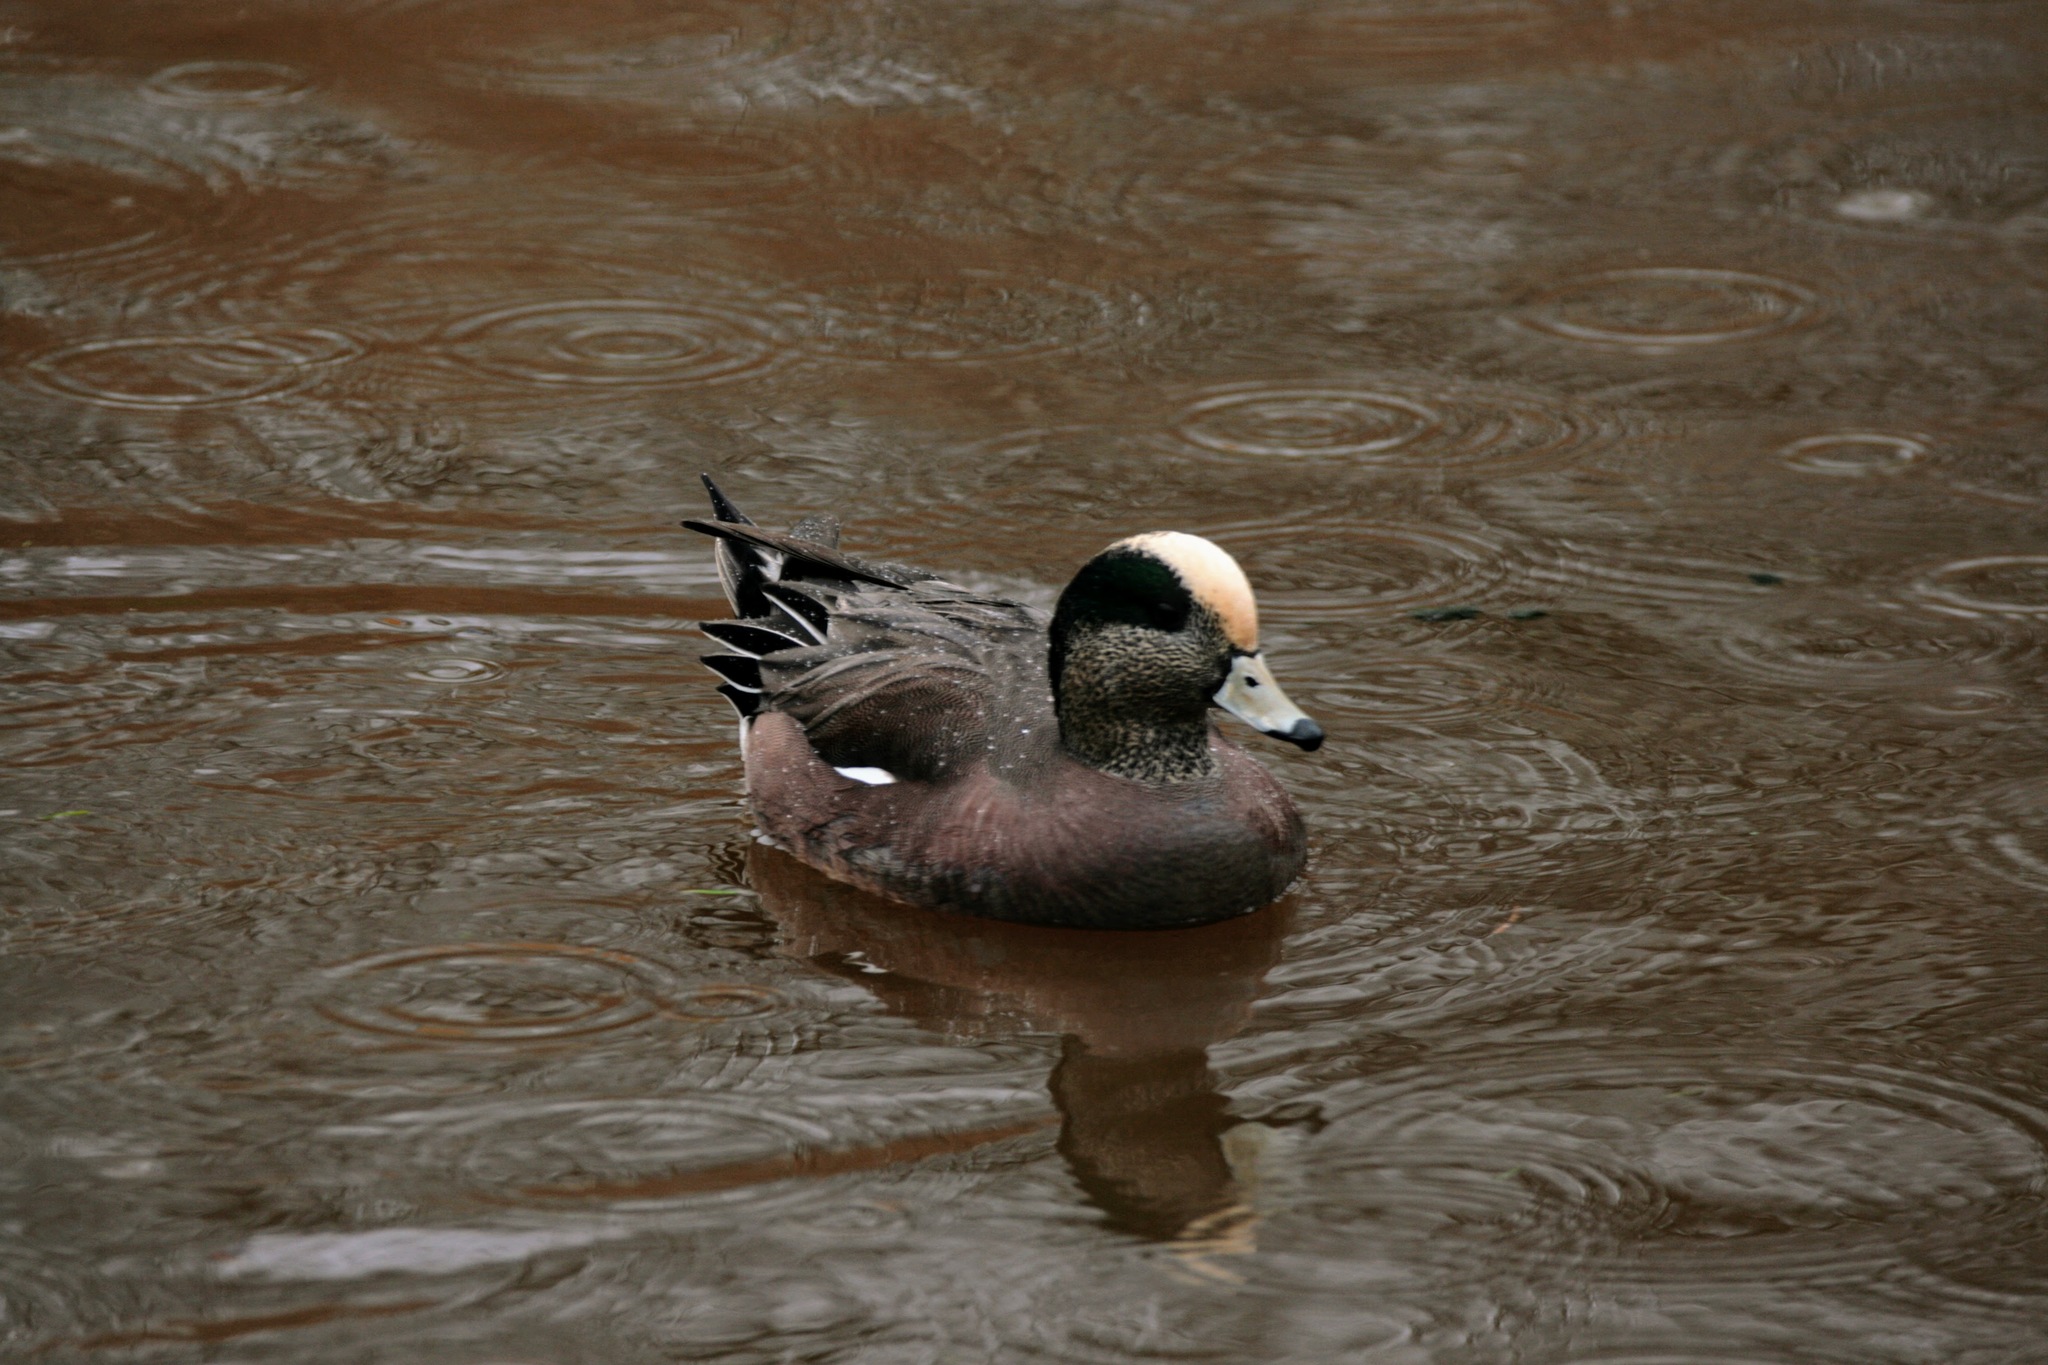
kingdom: Animalia
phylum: Chordata
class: Aves
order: Anseriformes
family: Anatidae
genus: Mareca
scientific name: Mareca americana
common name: American wigeon
